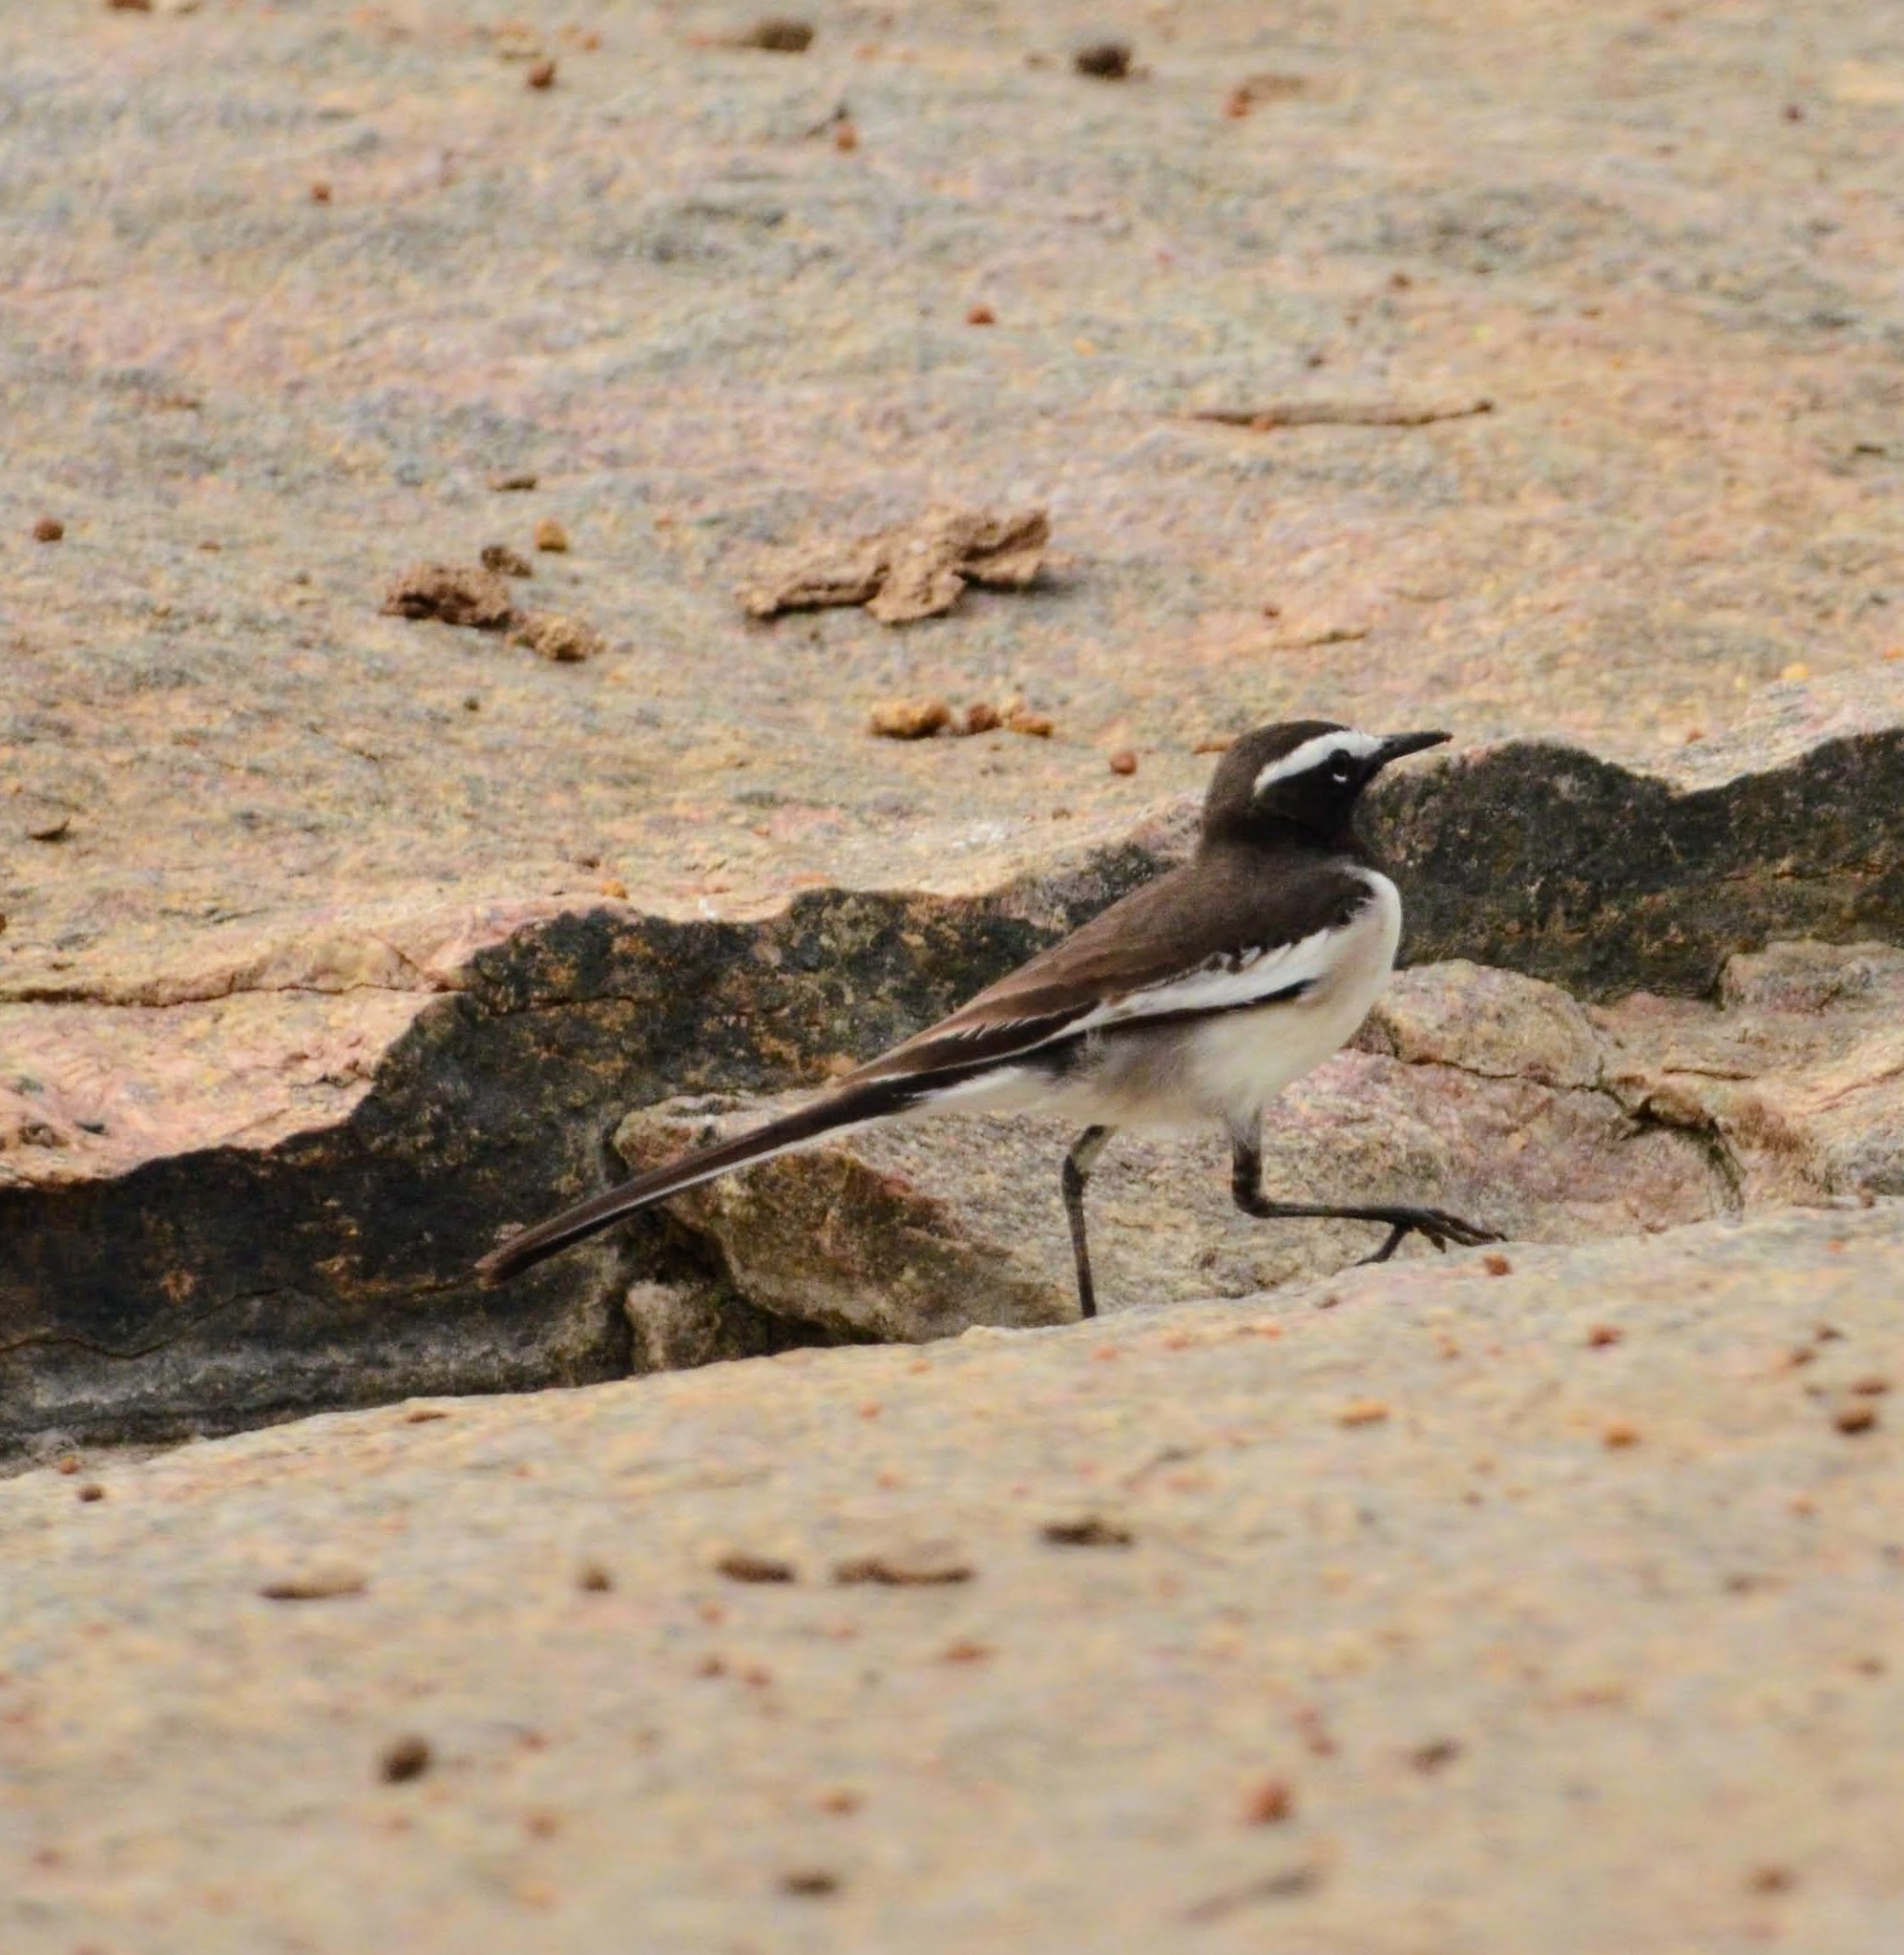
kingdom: Animalia
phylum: Chordata
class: Aves
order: Passeriformes
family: Motacillidae
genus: Motacilla
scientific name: Motacilla maderaspatensis
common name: White-browed wagtail
